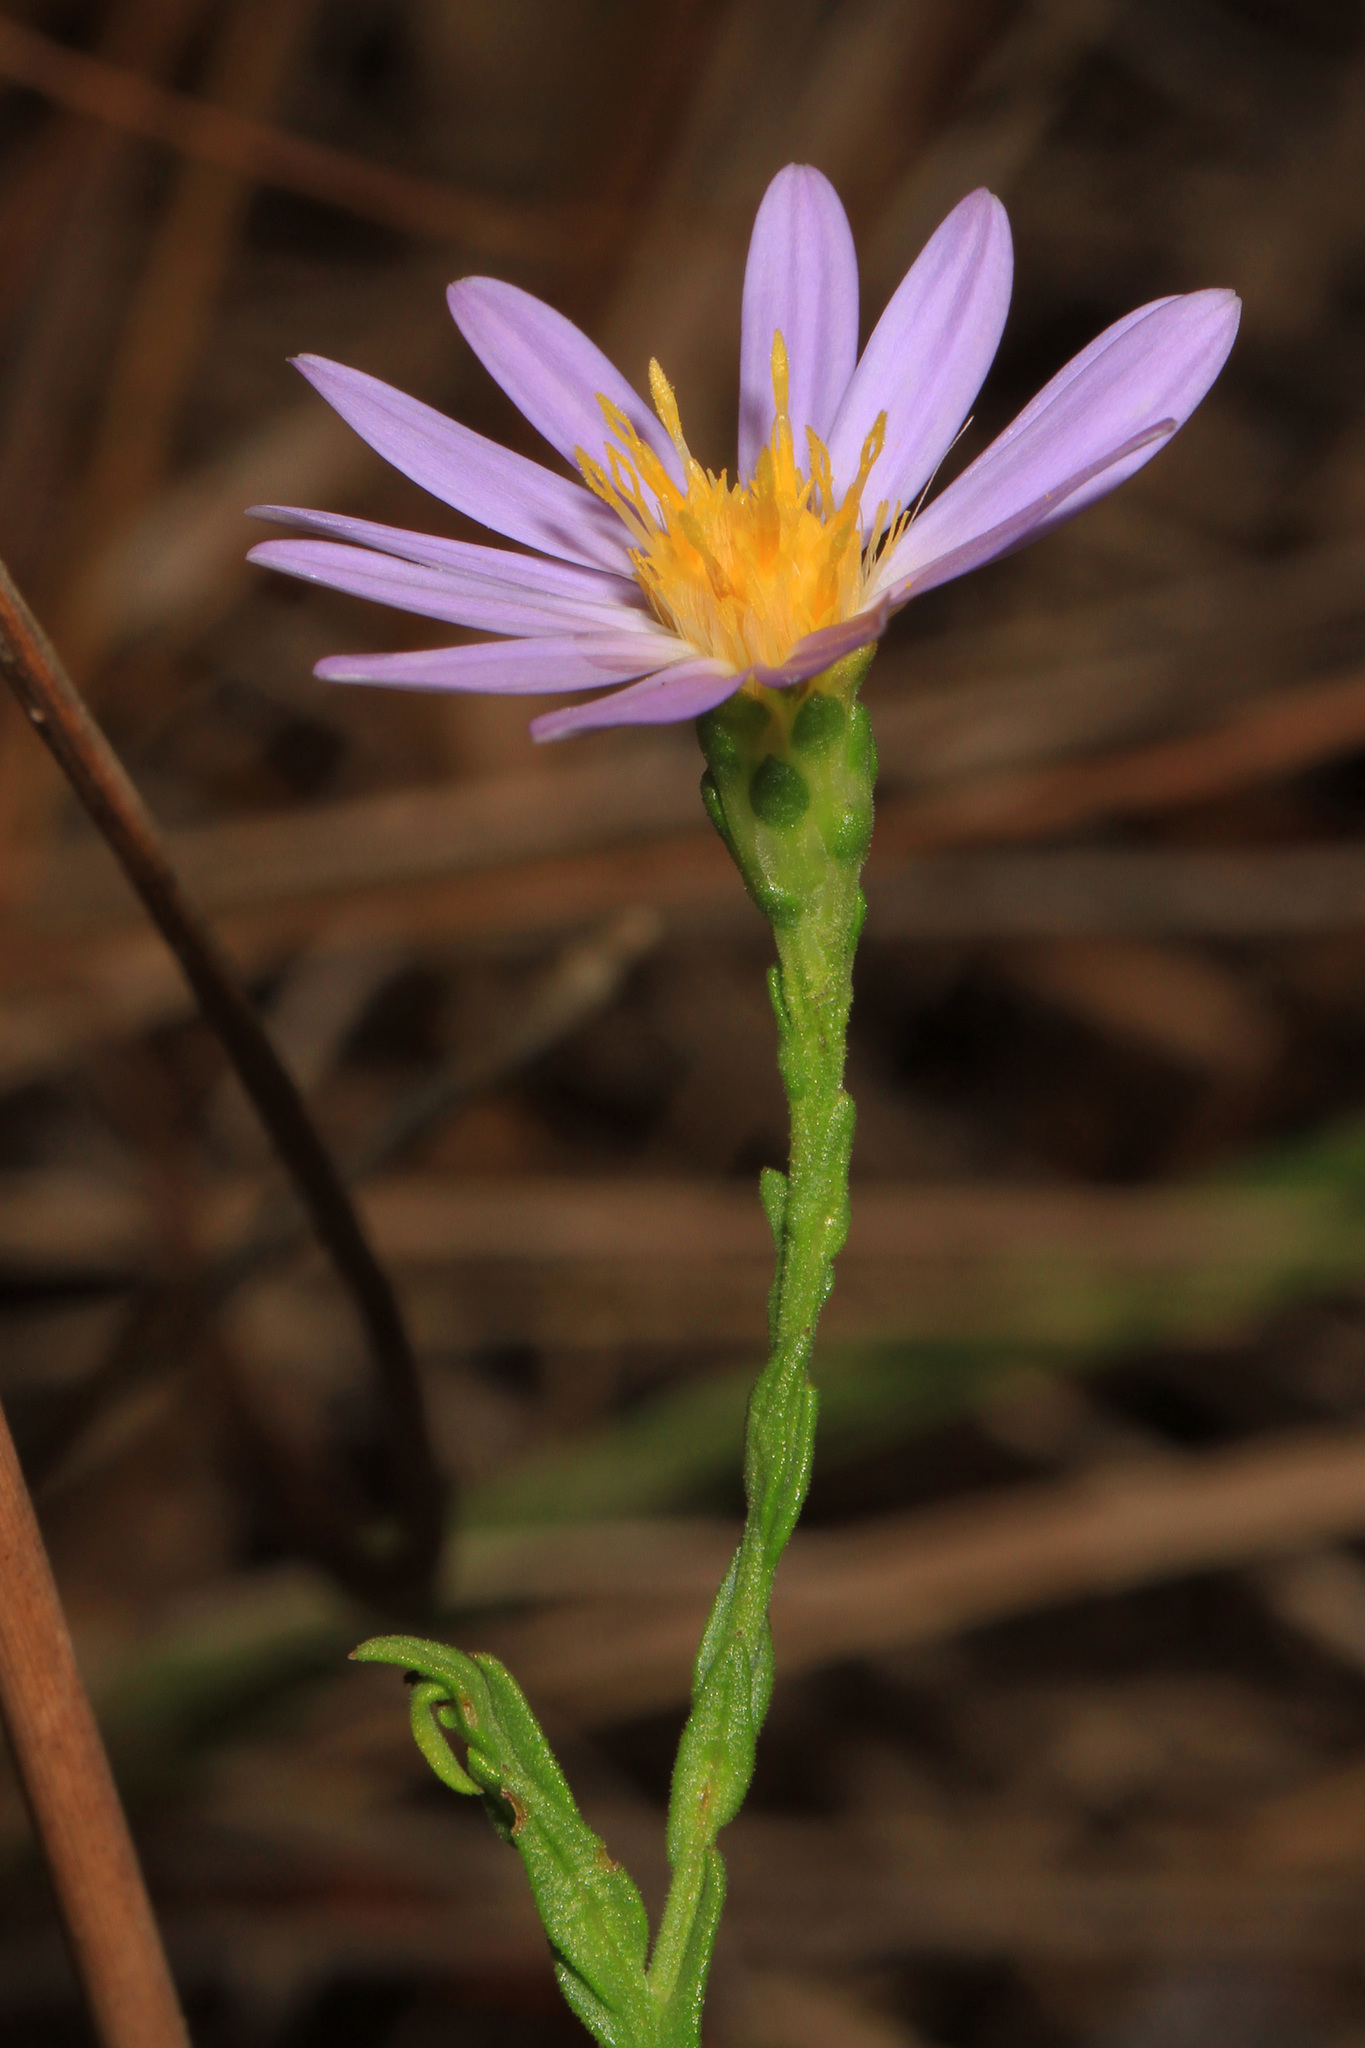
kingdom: Plantae
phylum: Tracheophyta
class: Magnoliopsida
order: Asterales
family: Asteraceae
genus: Symphyotrichum
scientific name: Symphyotrichum adnatum
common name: Scale-leaf aster
